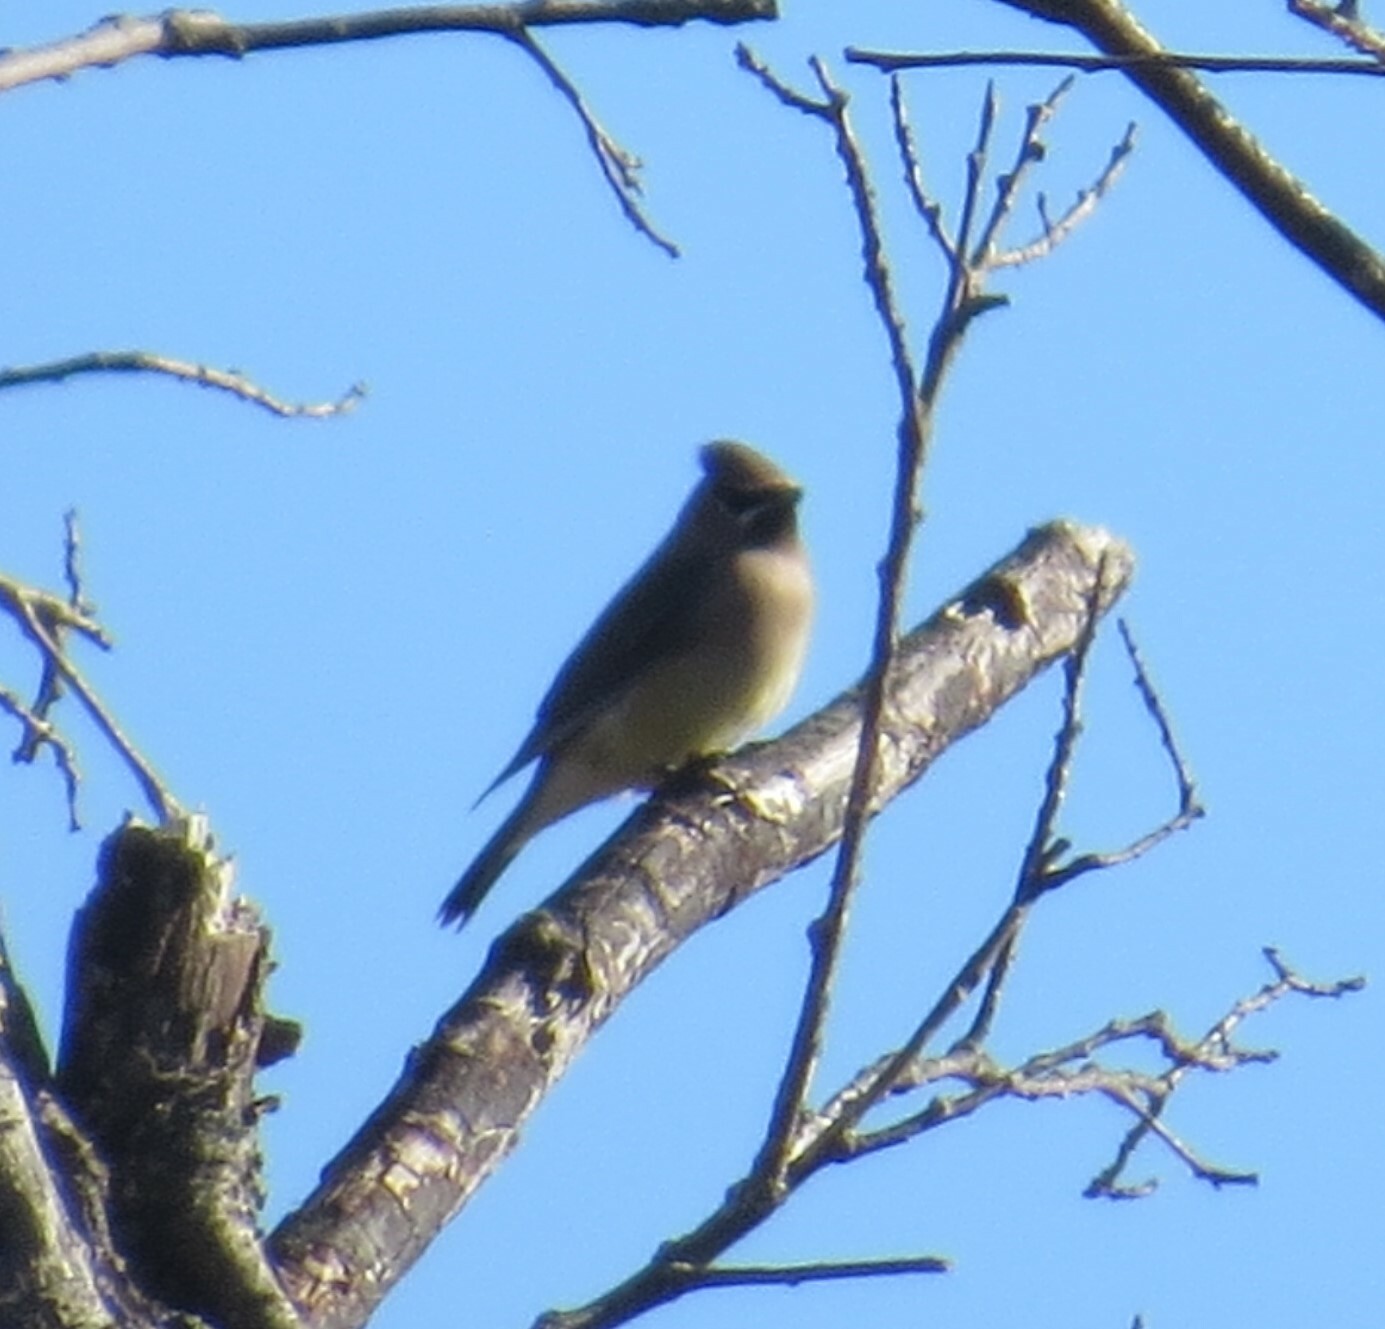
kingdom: Animalia
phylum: Chordata
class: Aves
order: Passeriformes
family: Bombycillidae
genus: Bombycilla
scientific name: Bombycilla cedrorum
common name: Cedar waxwing
